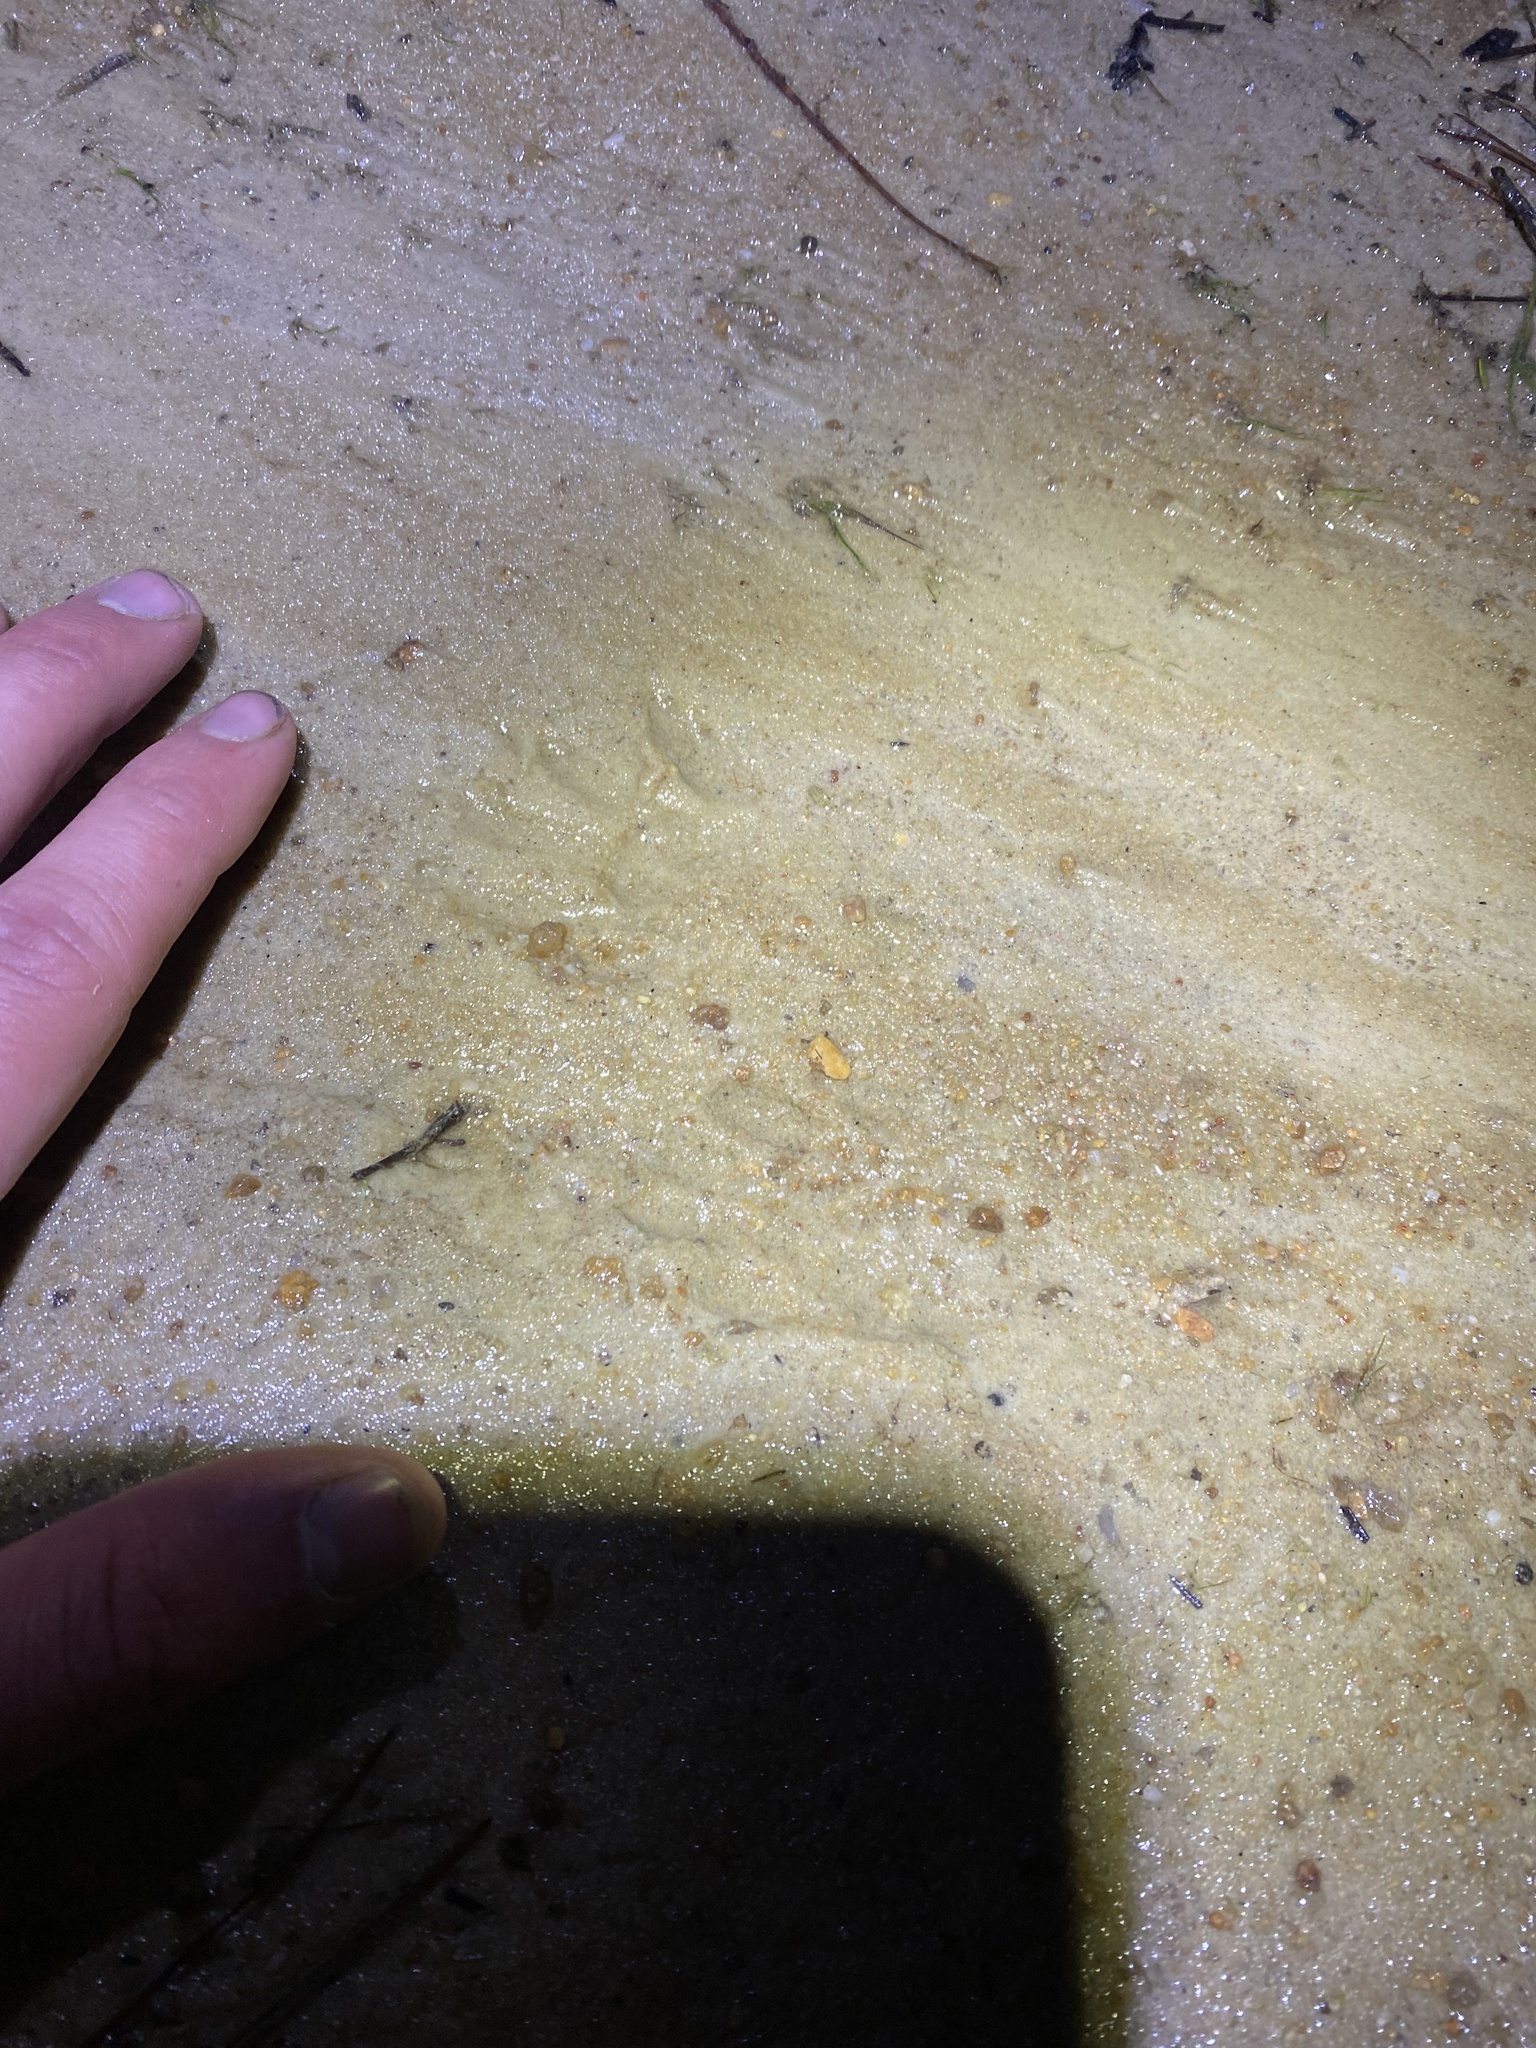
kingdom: Animalia
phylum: Chordata
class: Mammalia
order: Carnivora
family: Procyonidae
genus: Procyon
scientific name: Procyon lotor
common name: Raccoon
